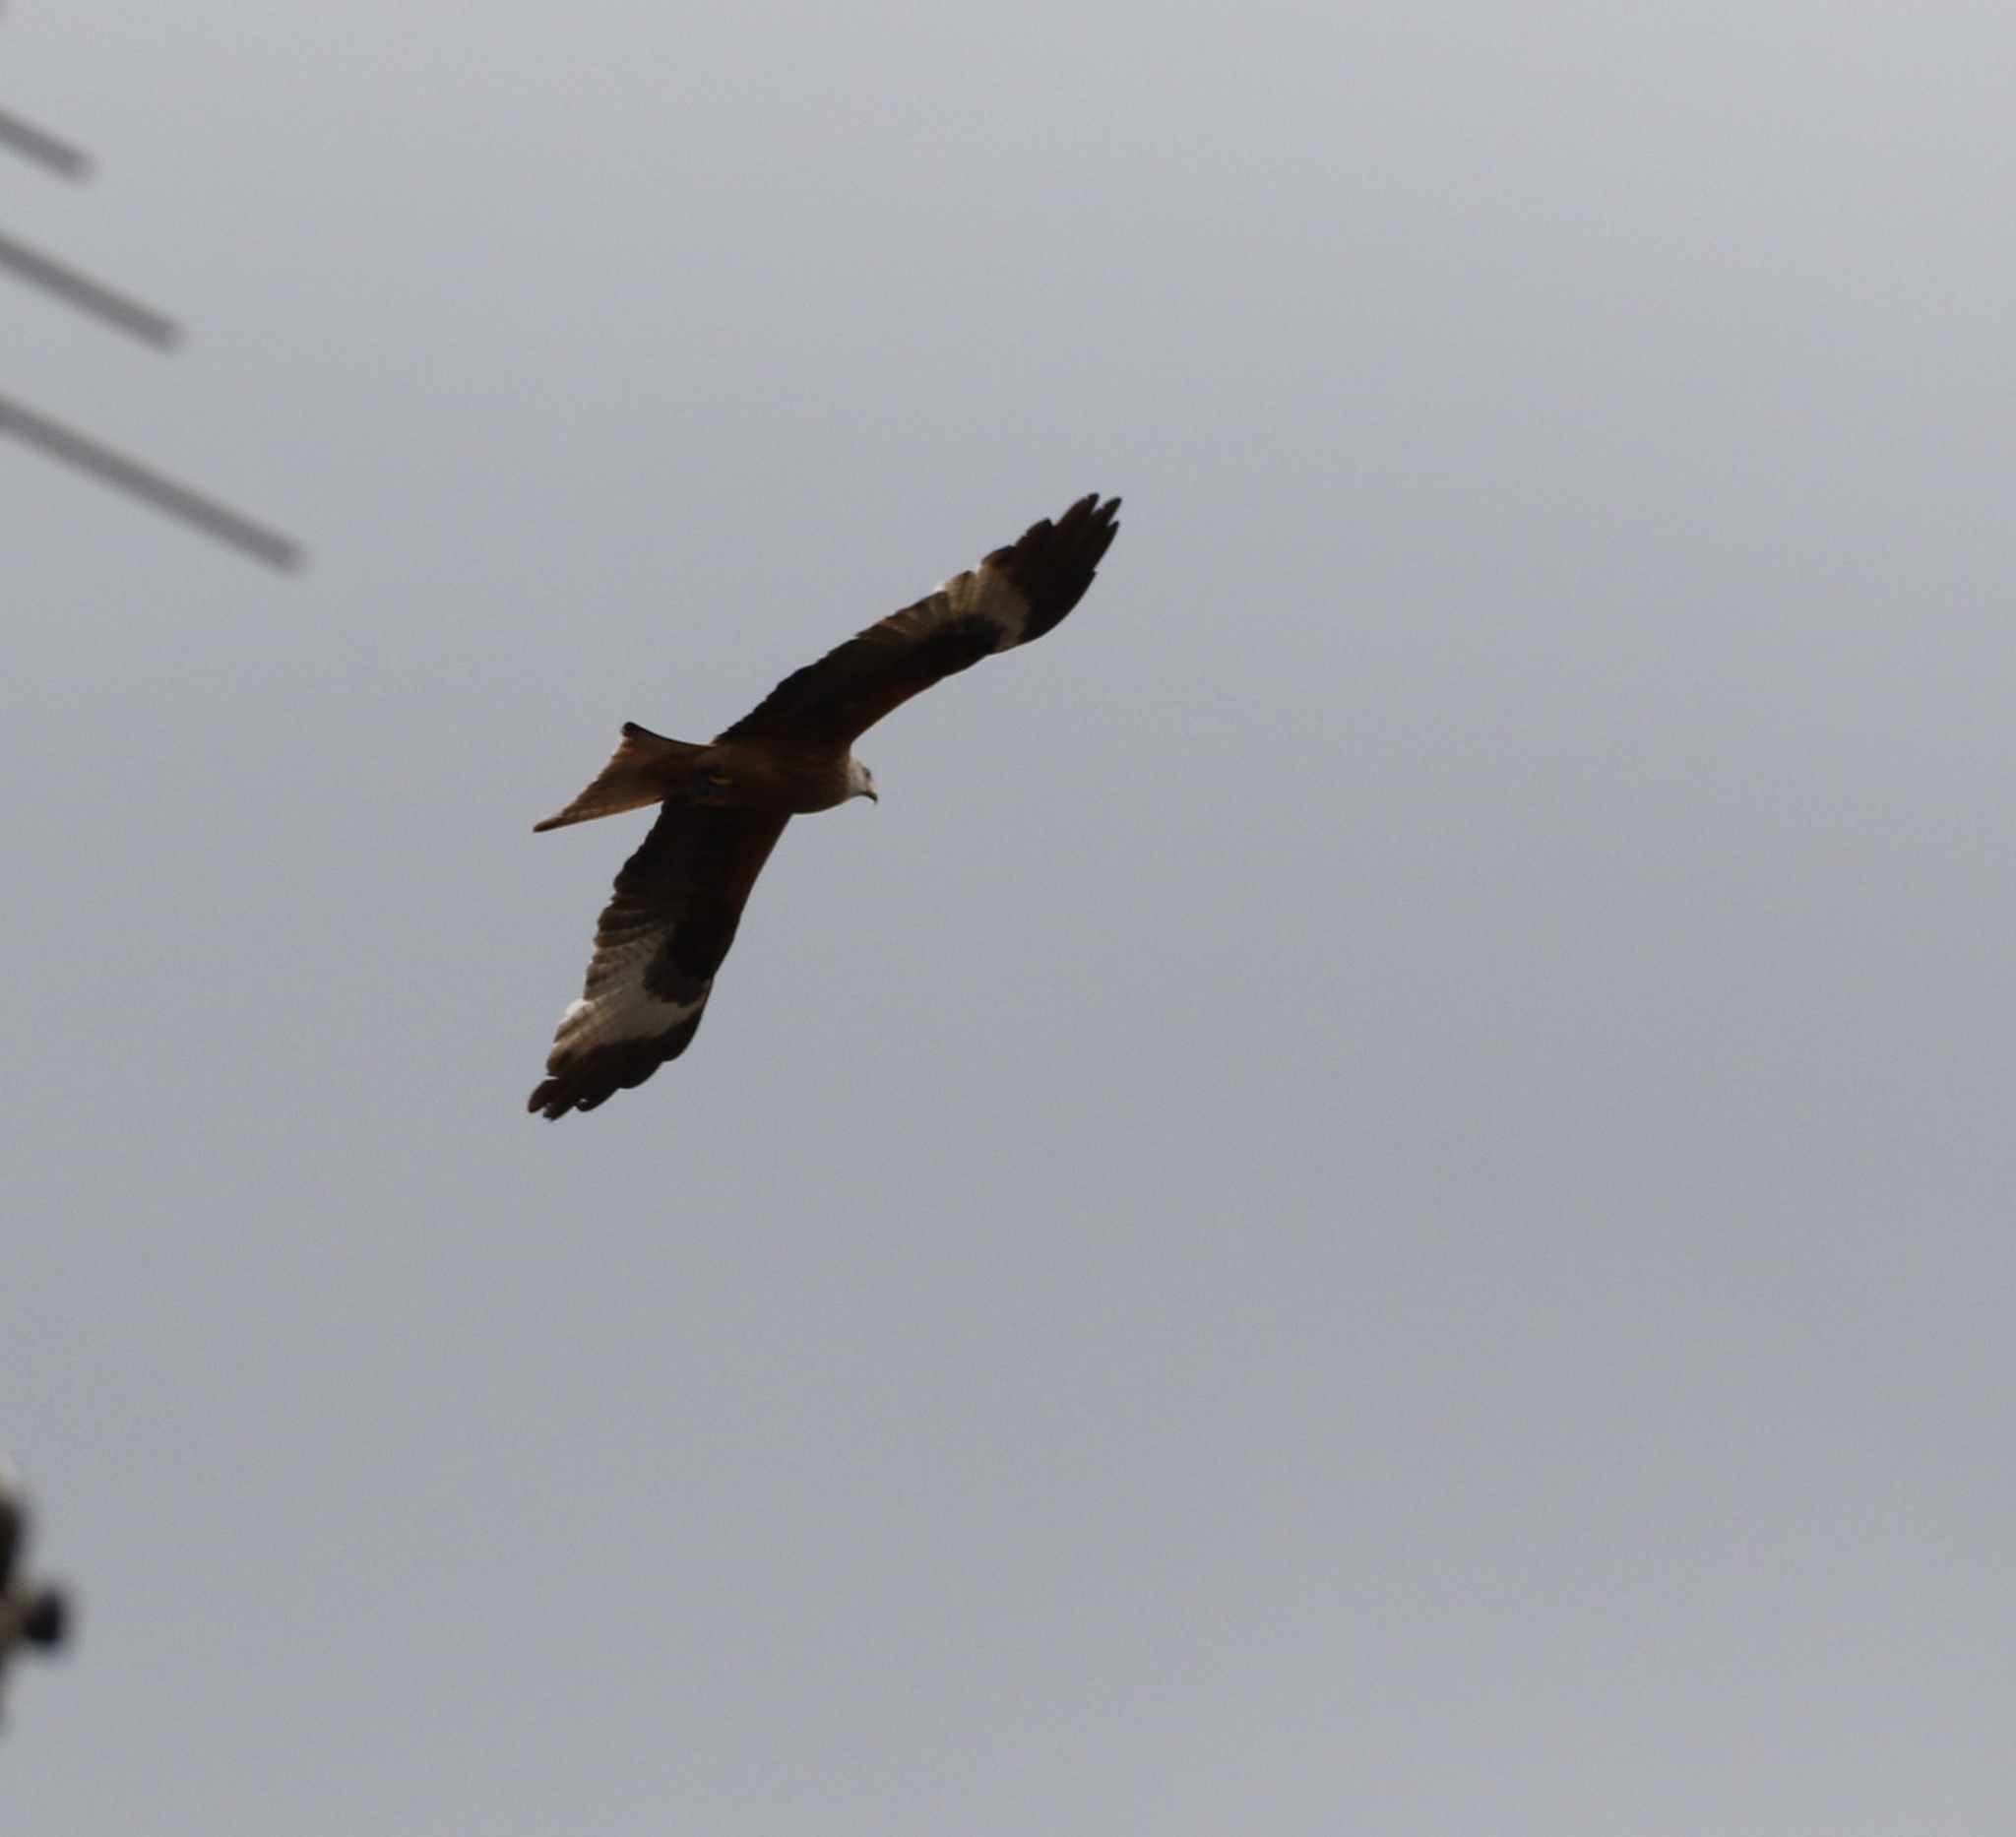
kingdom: Animalia
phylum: Chordata
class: Aves
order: Accipitriformes
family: Accipitridae
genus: Milvus
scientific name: Milvus milvus
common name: Red kite
